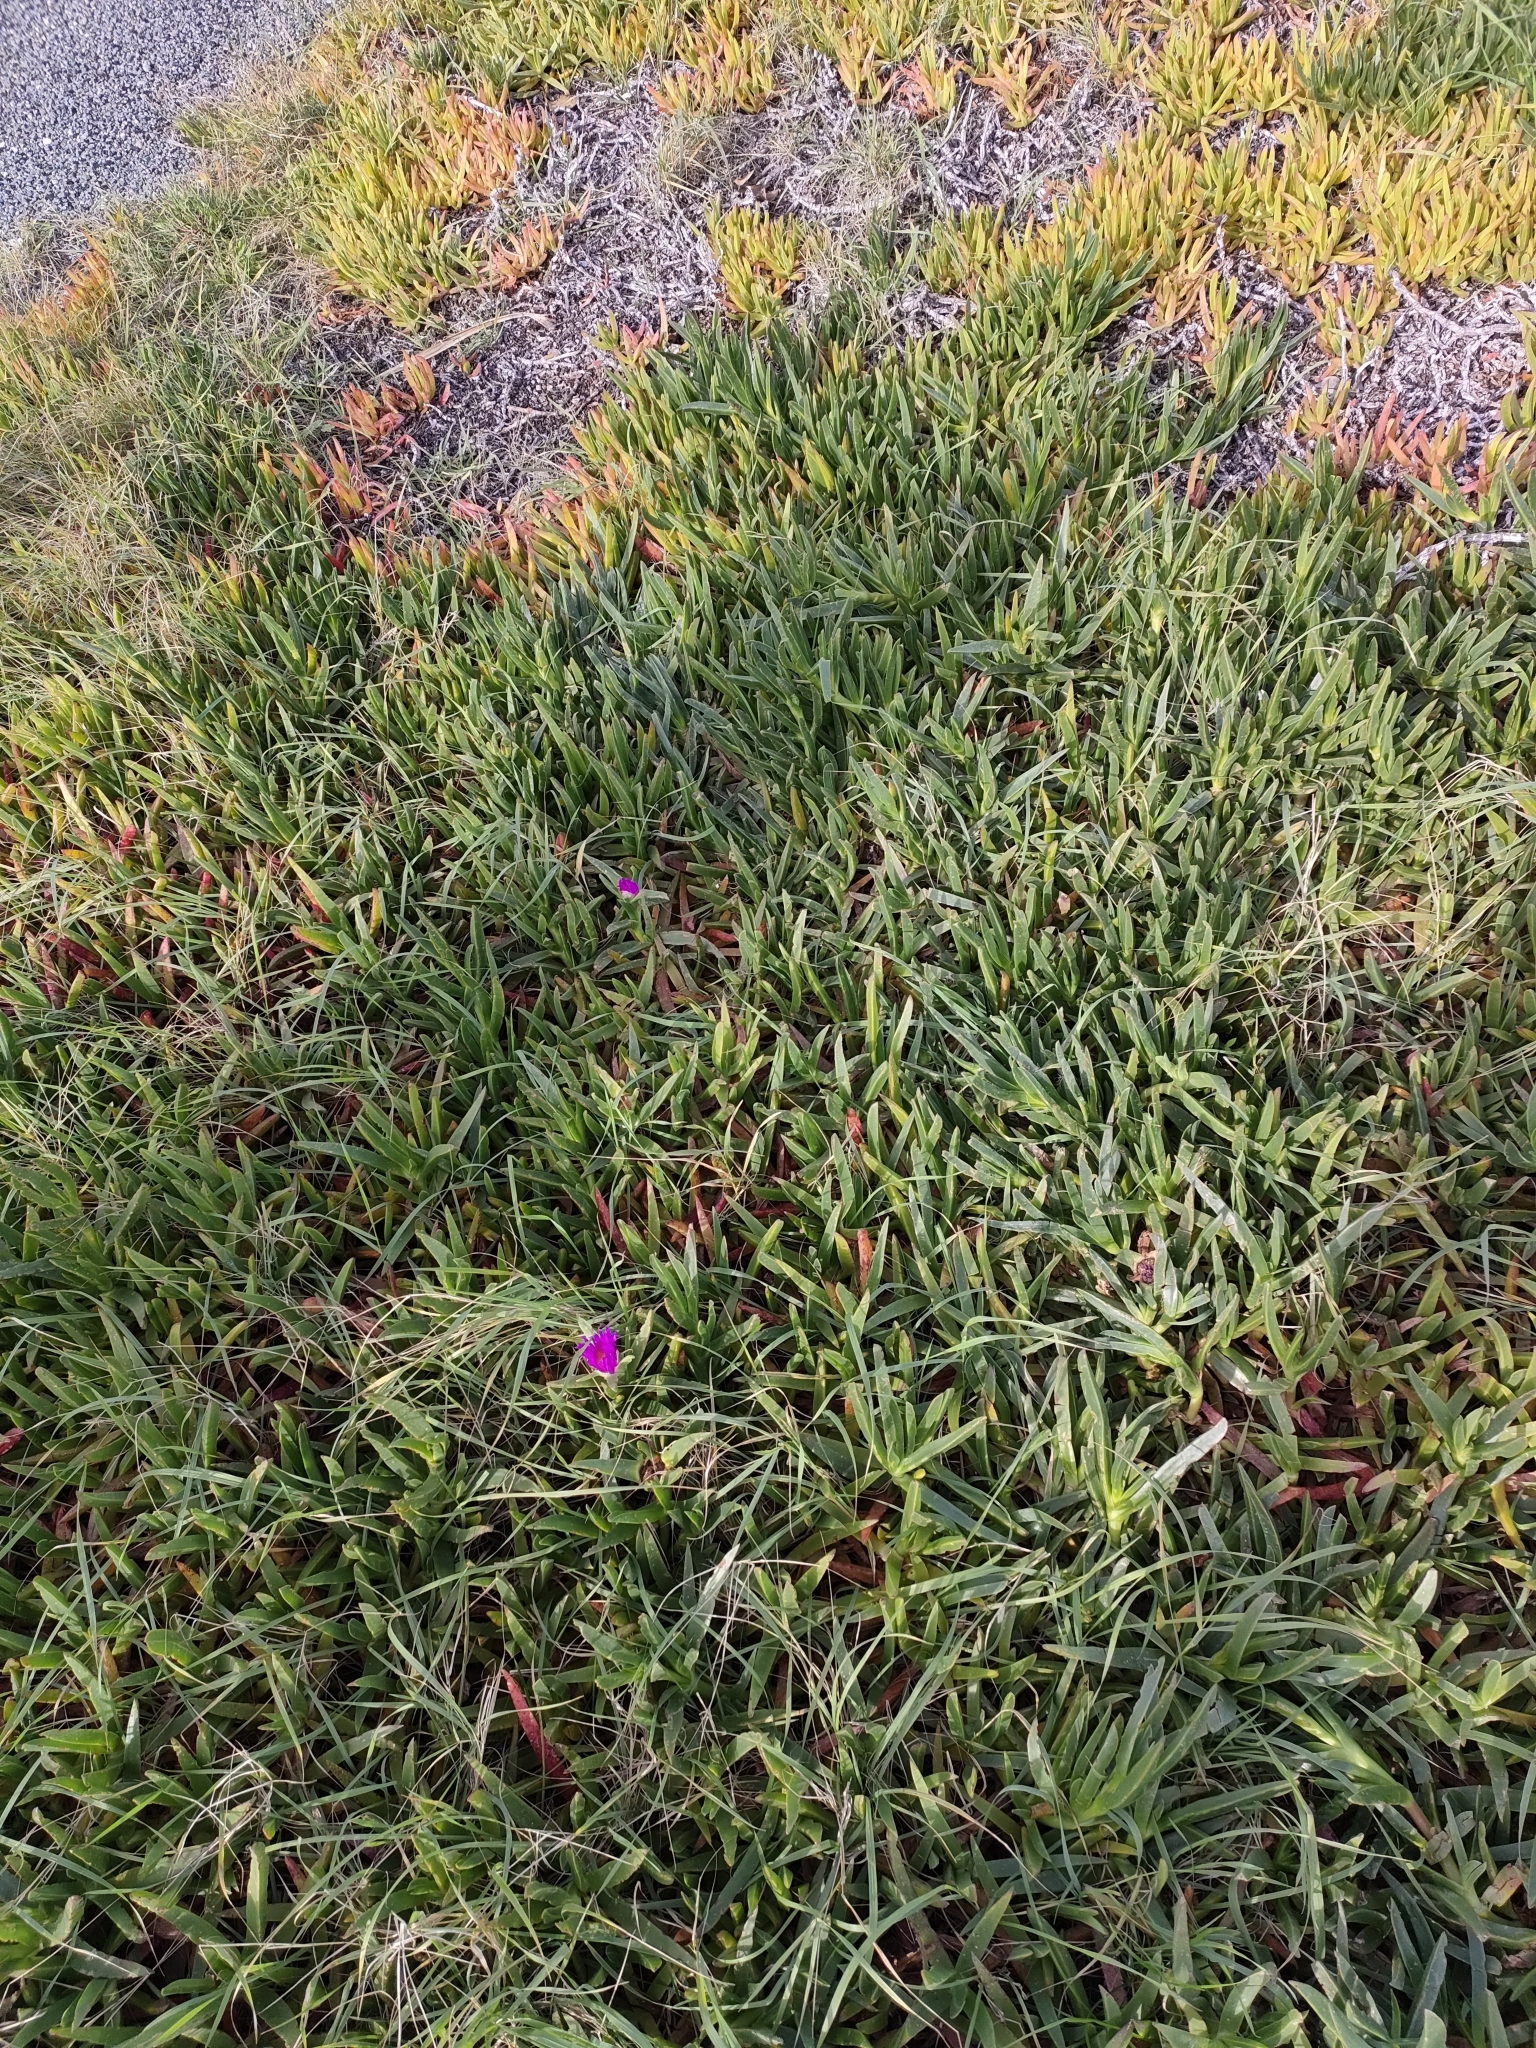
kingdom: Plantae
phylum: Tracheophyta
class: Magnoliopsida
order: Caryophyllales
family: Aizoaceae
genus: Carpobrotus
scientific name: Carpobrotus chilensis
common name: Sea fig
